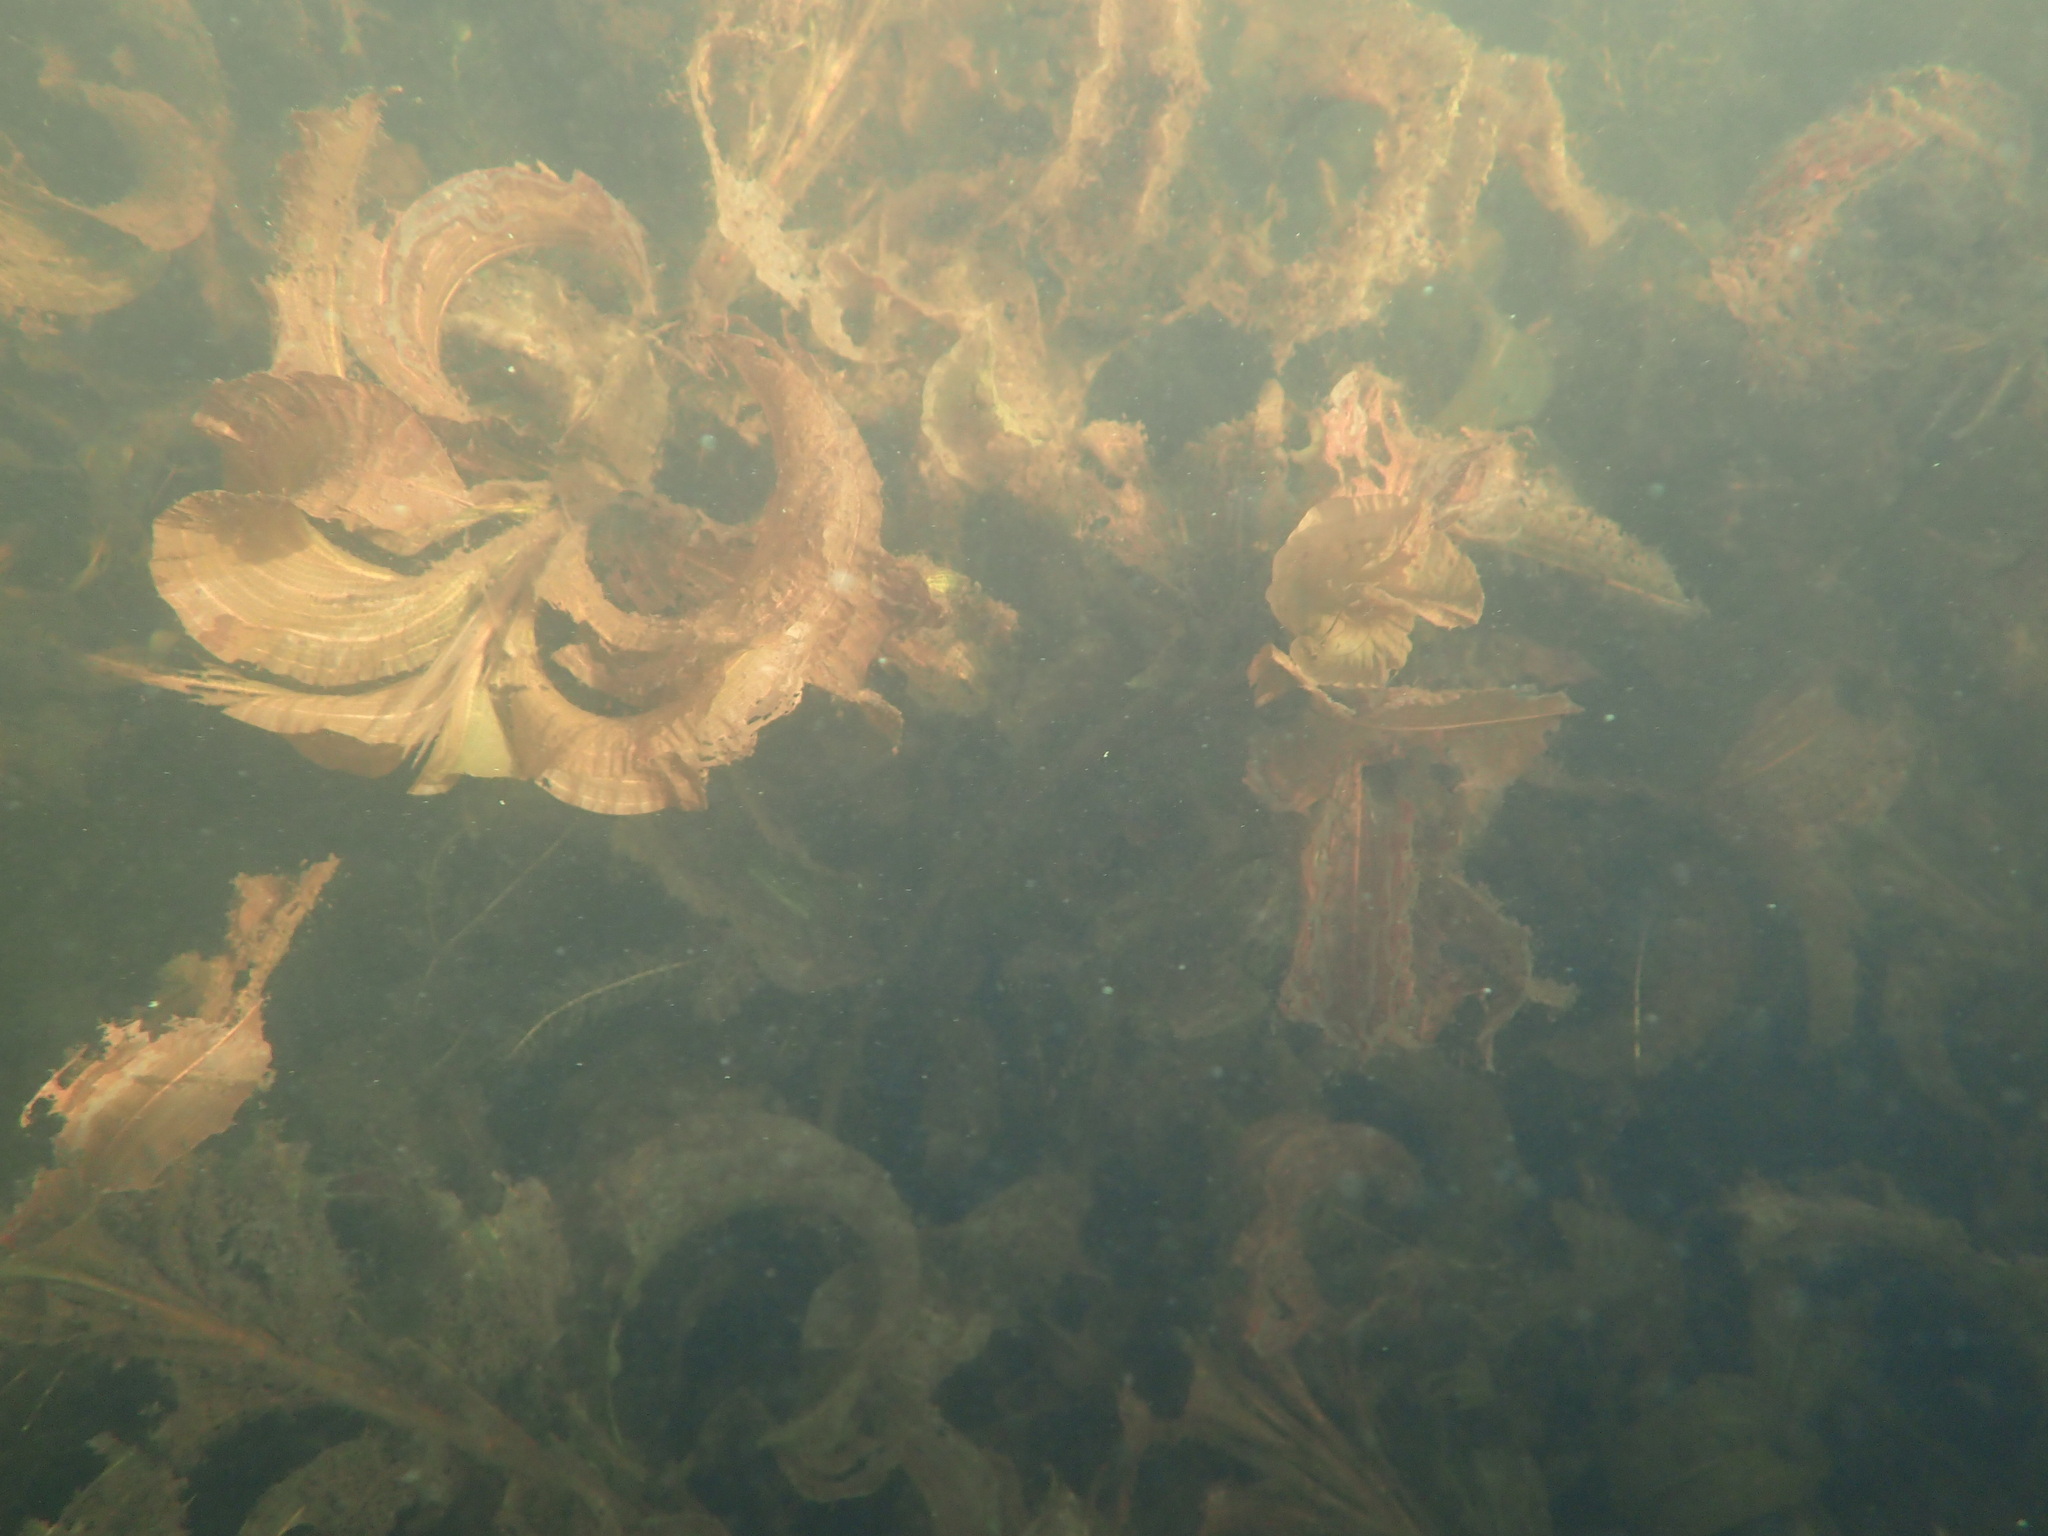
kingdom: Plantae
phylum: Tracheophyta
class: Liliopsida
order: Alismatales
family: Potamogetonaceae
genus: Potamogeton
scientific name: Potamogeton amplifolius
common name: Broad-leaved pondweed
